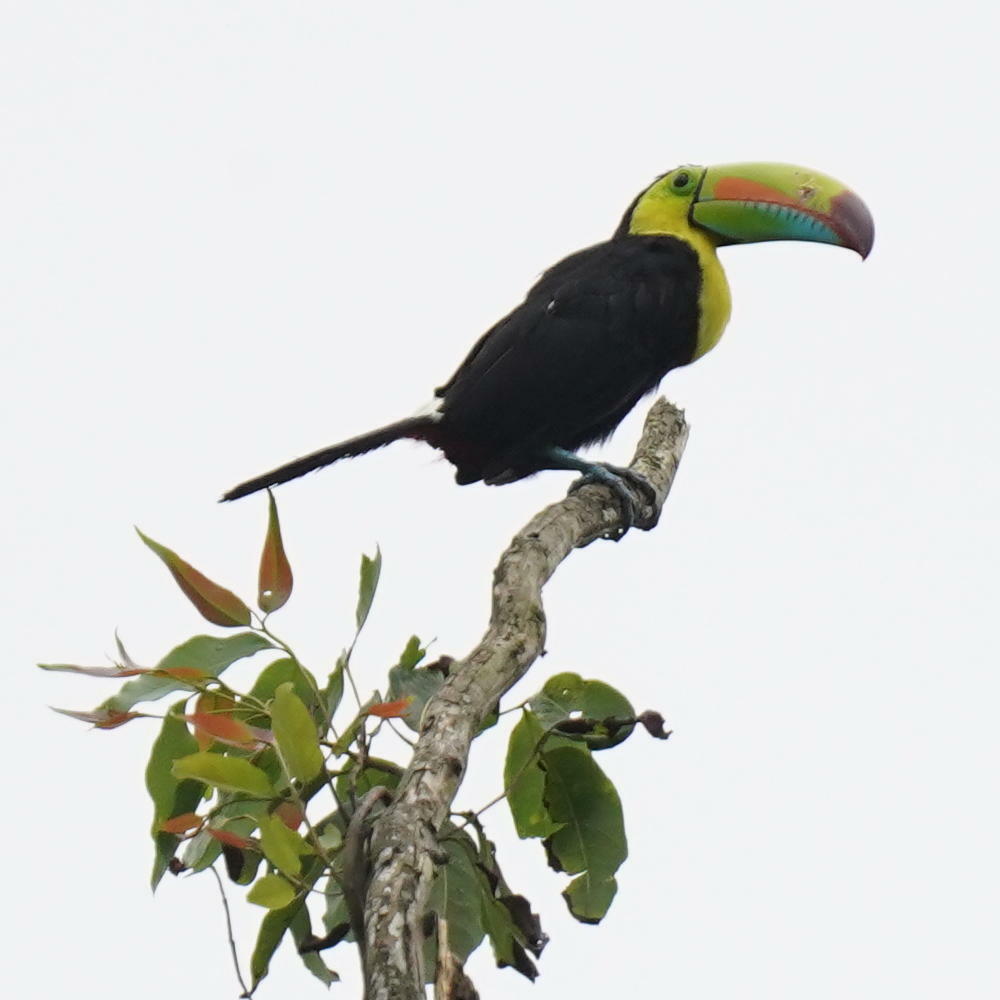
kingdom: Animalia
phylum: Chordata
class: Aves
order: Piciformes
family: Ramphastidae
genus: Ramphastos
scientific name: Ramphastos sulfuratus
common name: Keel-billed toucan
